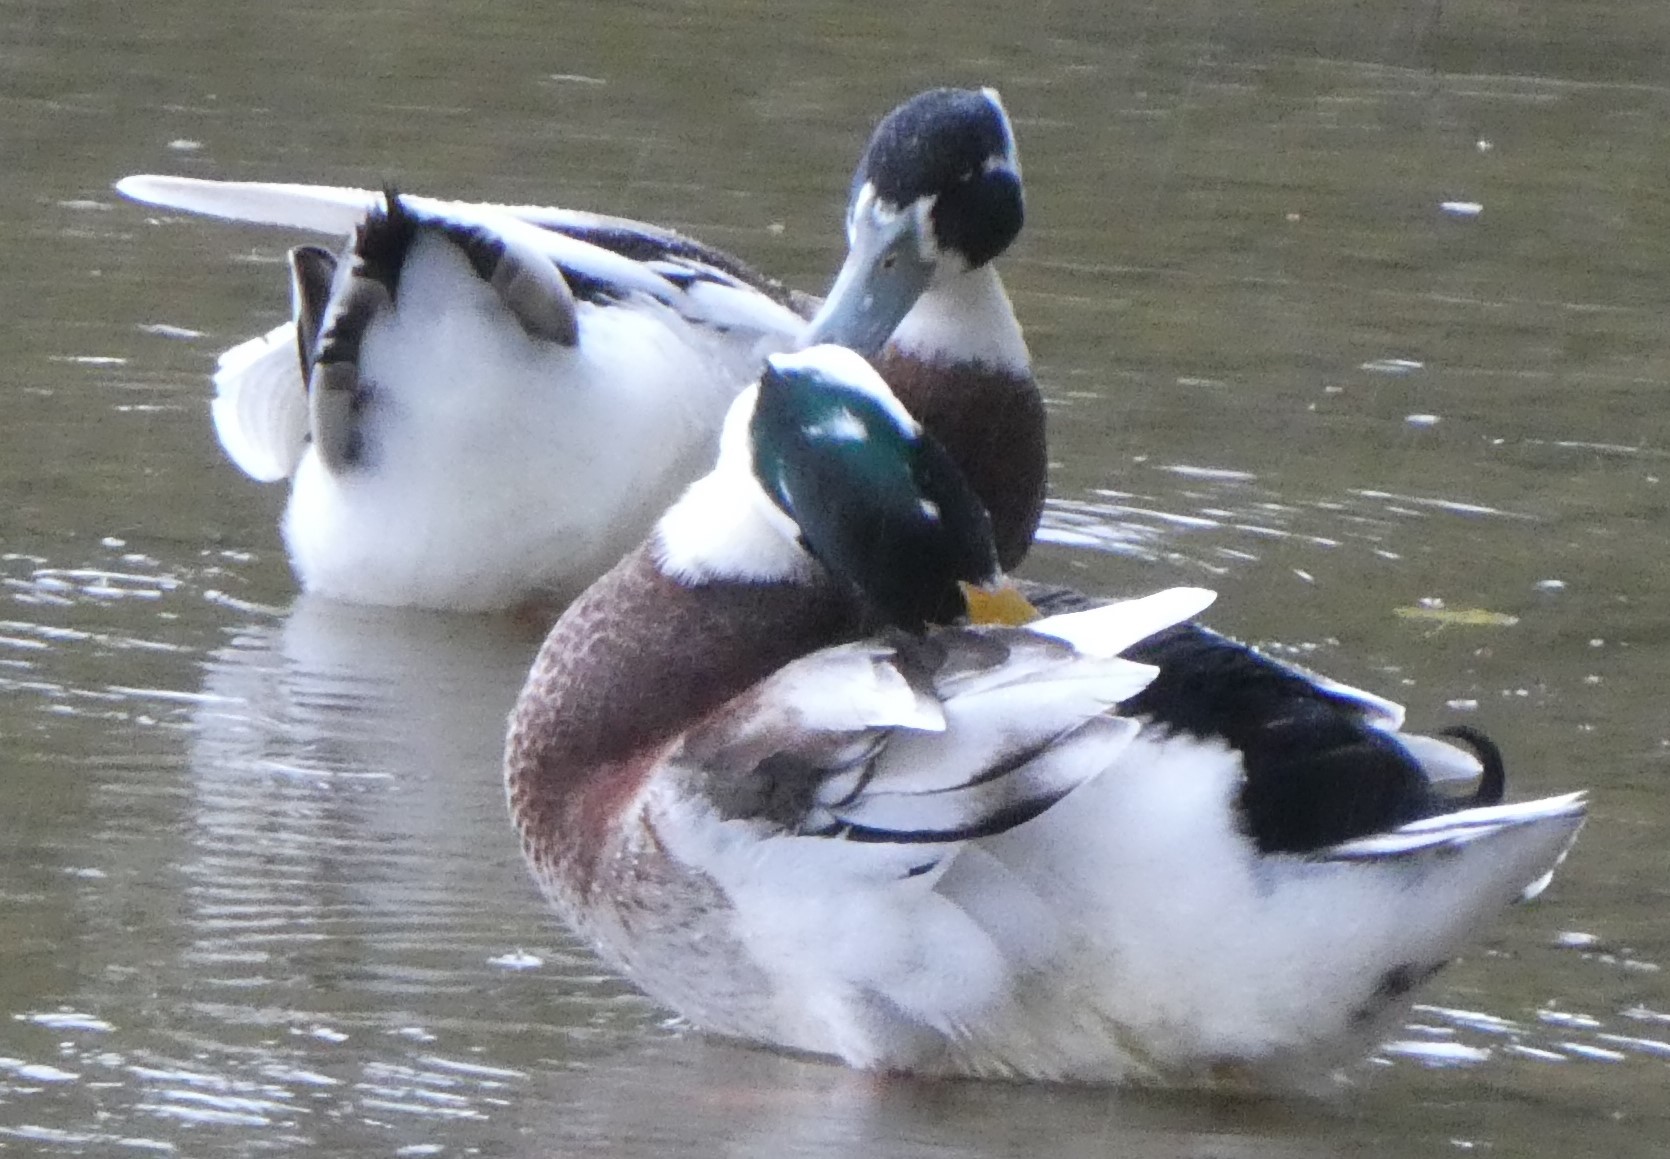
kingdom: Animalia
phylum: Chordata
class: Aves
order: Anseriformes
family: Anatidae
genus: Anas
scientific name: Anas platyrhynchos
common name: Mallard
